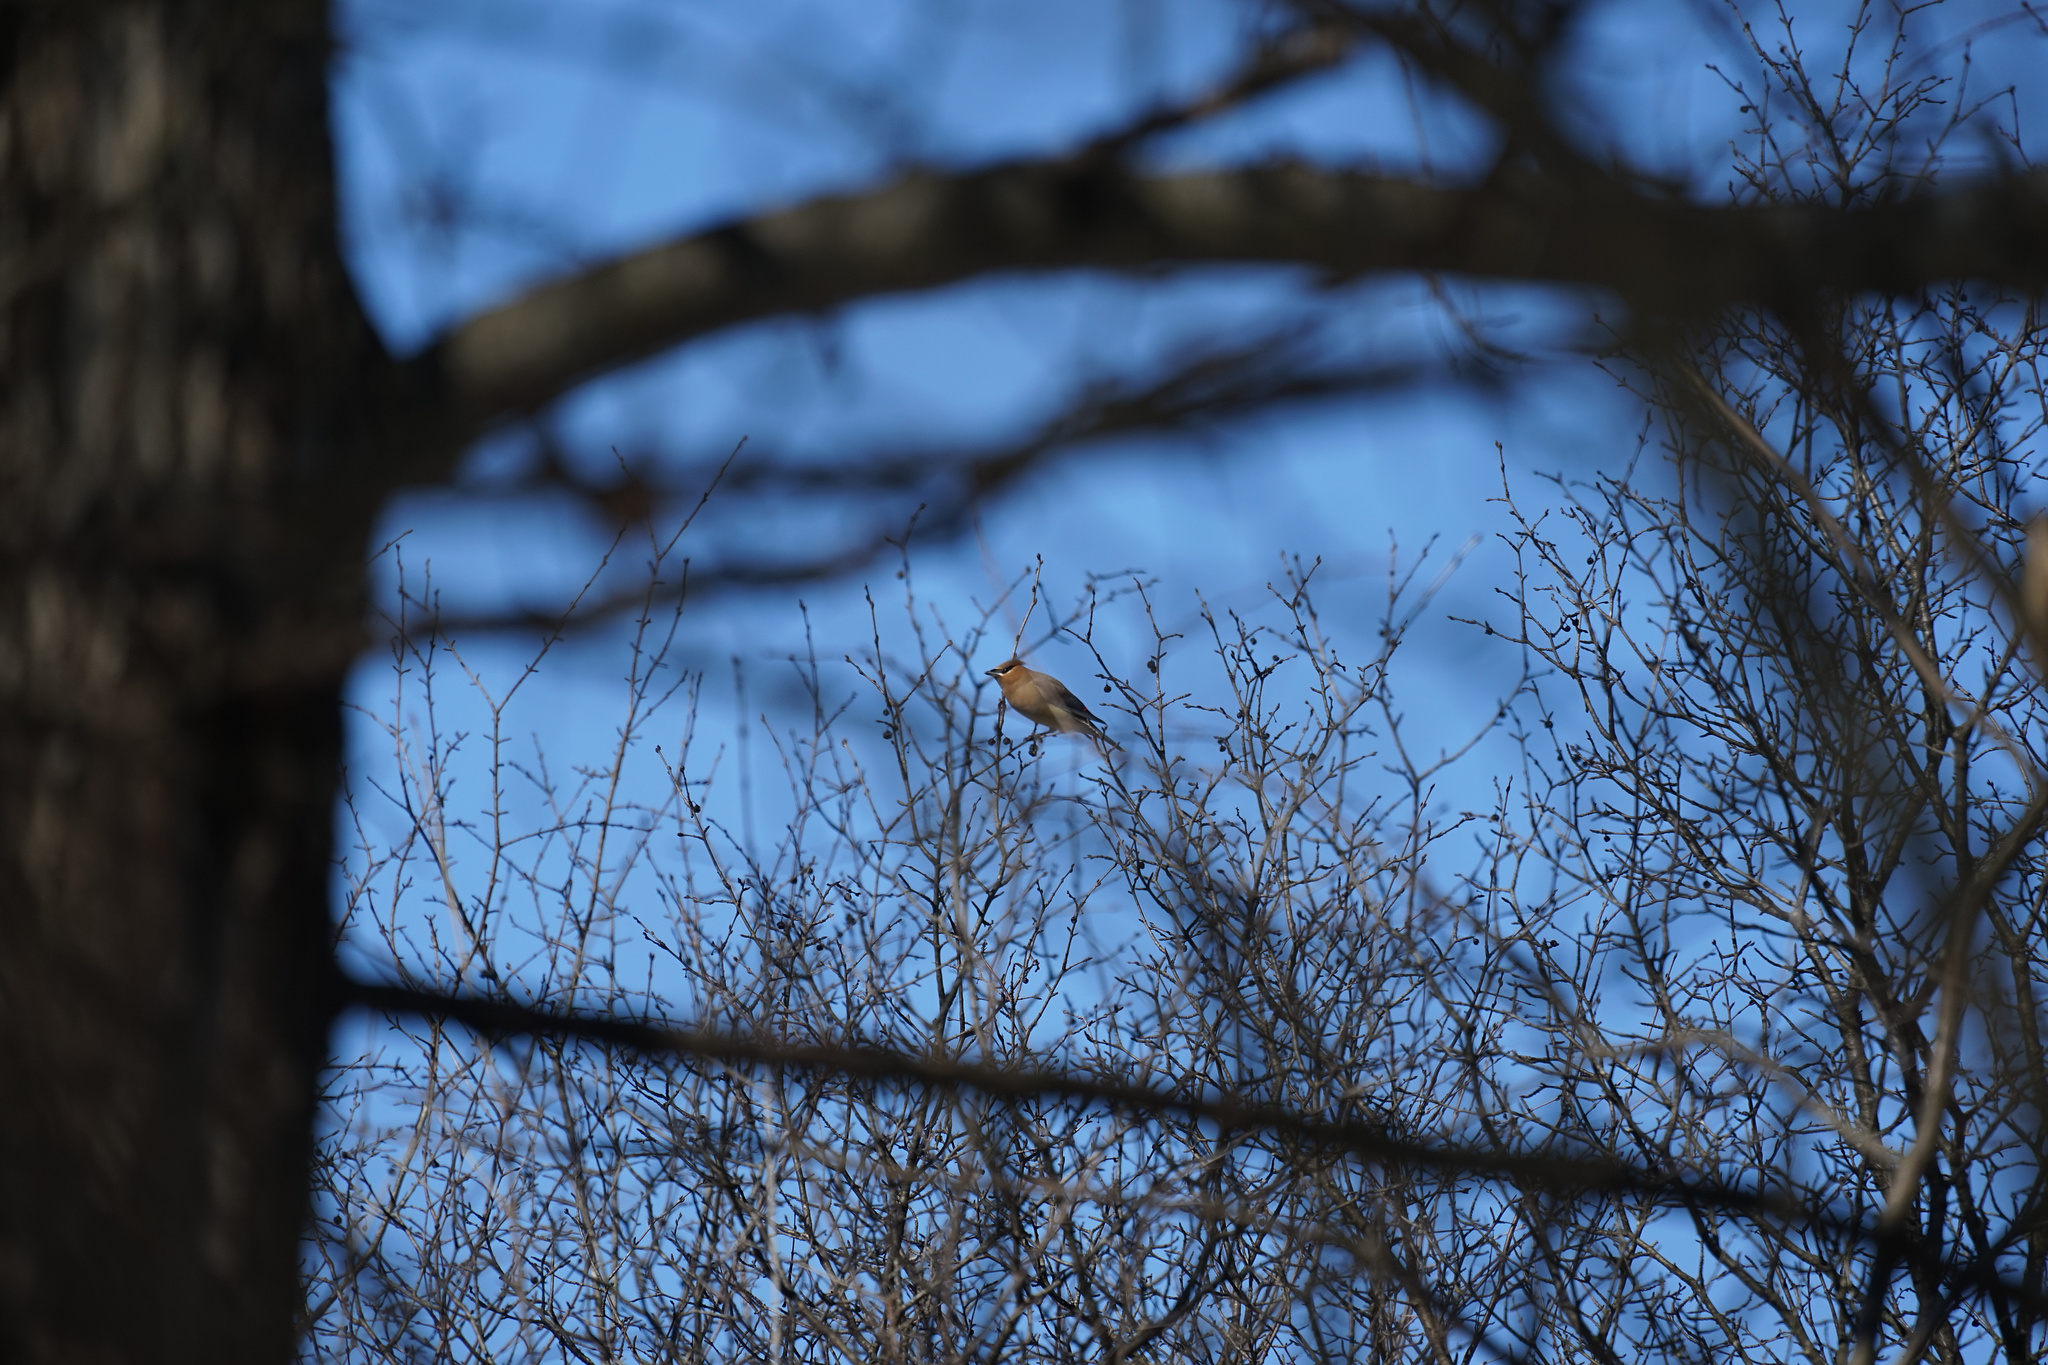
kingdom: Animalia
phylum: Chordata
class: Aves
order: Passeriformes
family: Bombycillidae
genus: Bombycilla
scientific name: Bombycilla cedrorum
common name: Cedar waxwing
